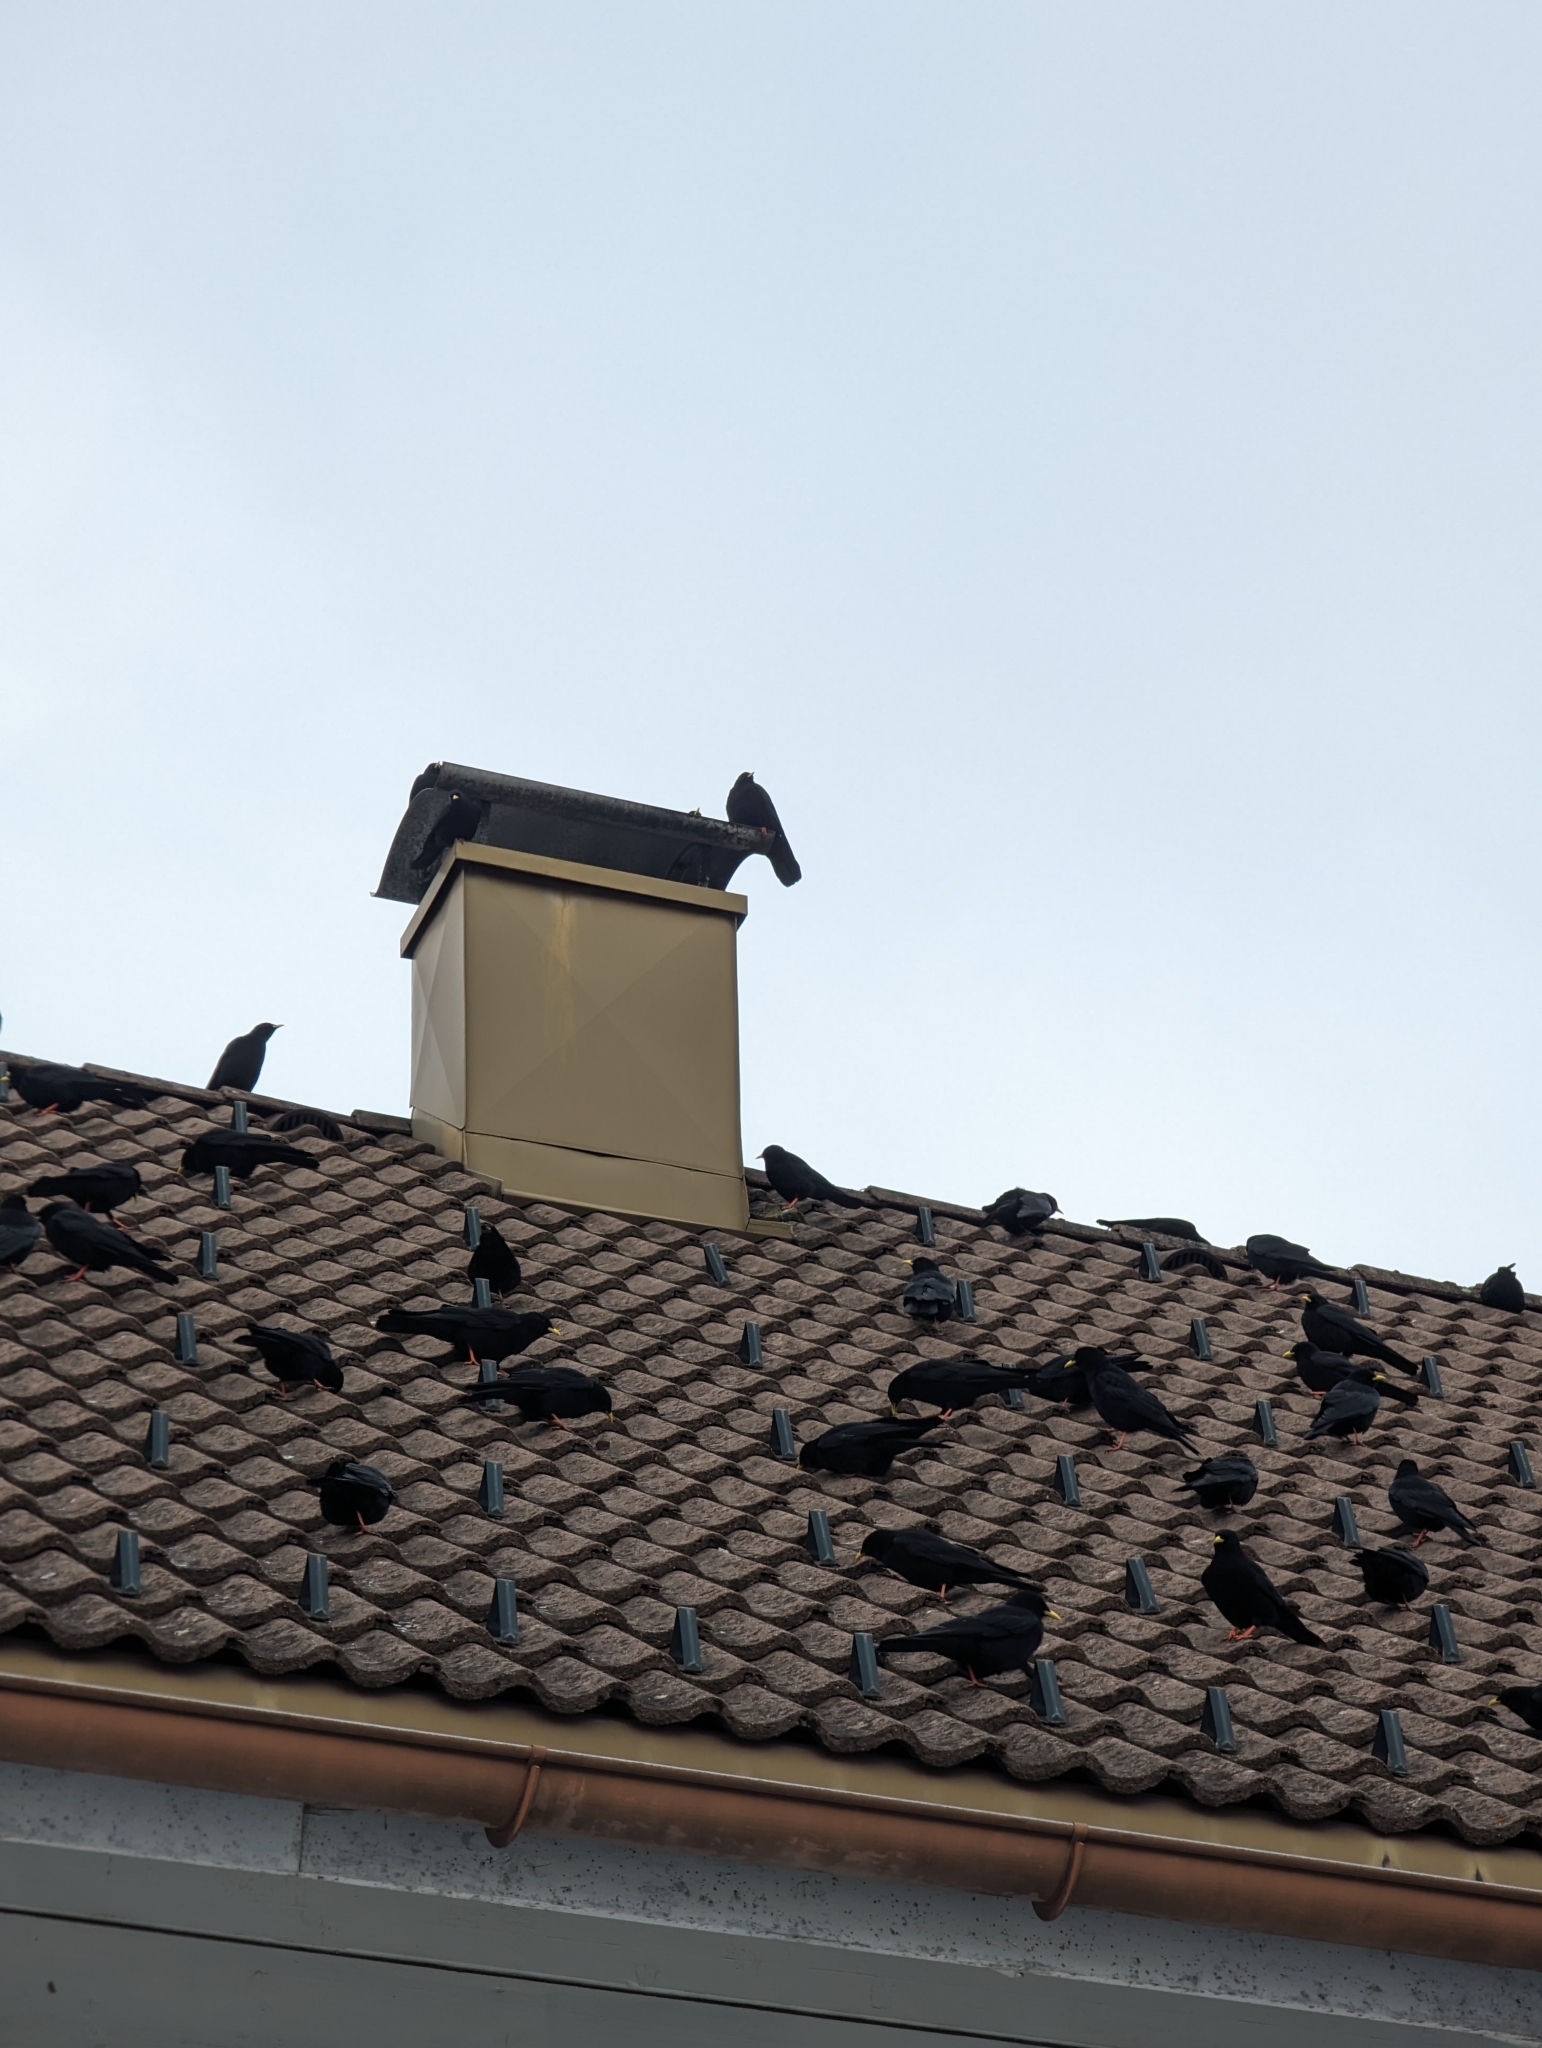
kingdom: Animalia
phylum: Chordata
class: Aves
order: Passeriformes
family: Corvidae
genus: Pyrrhocorax
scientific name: Pyrrhocorax graculus
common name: Alpine chough
